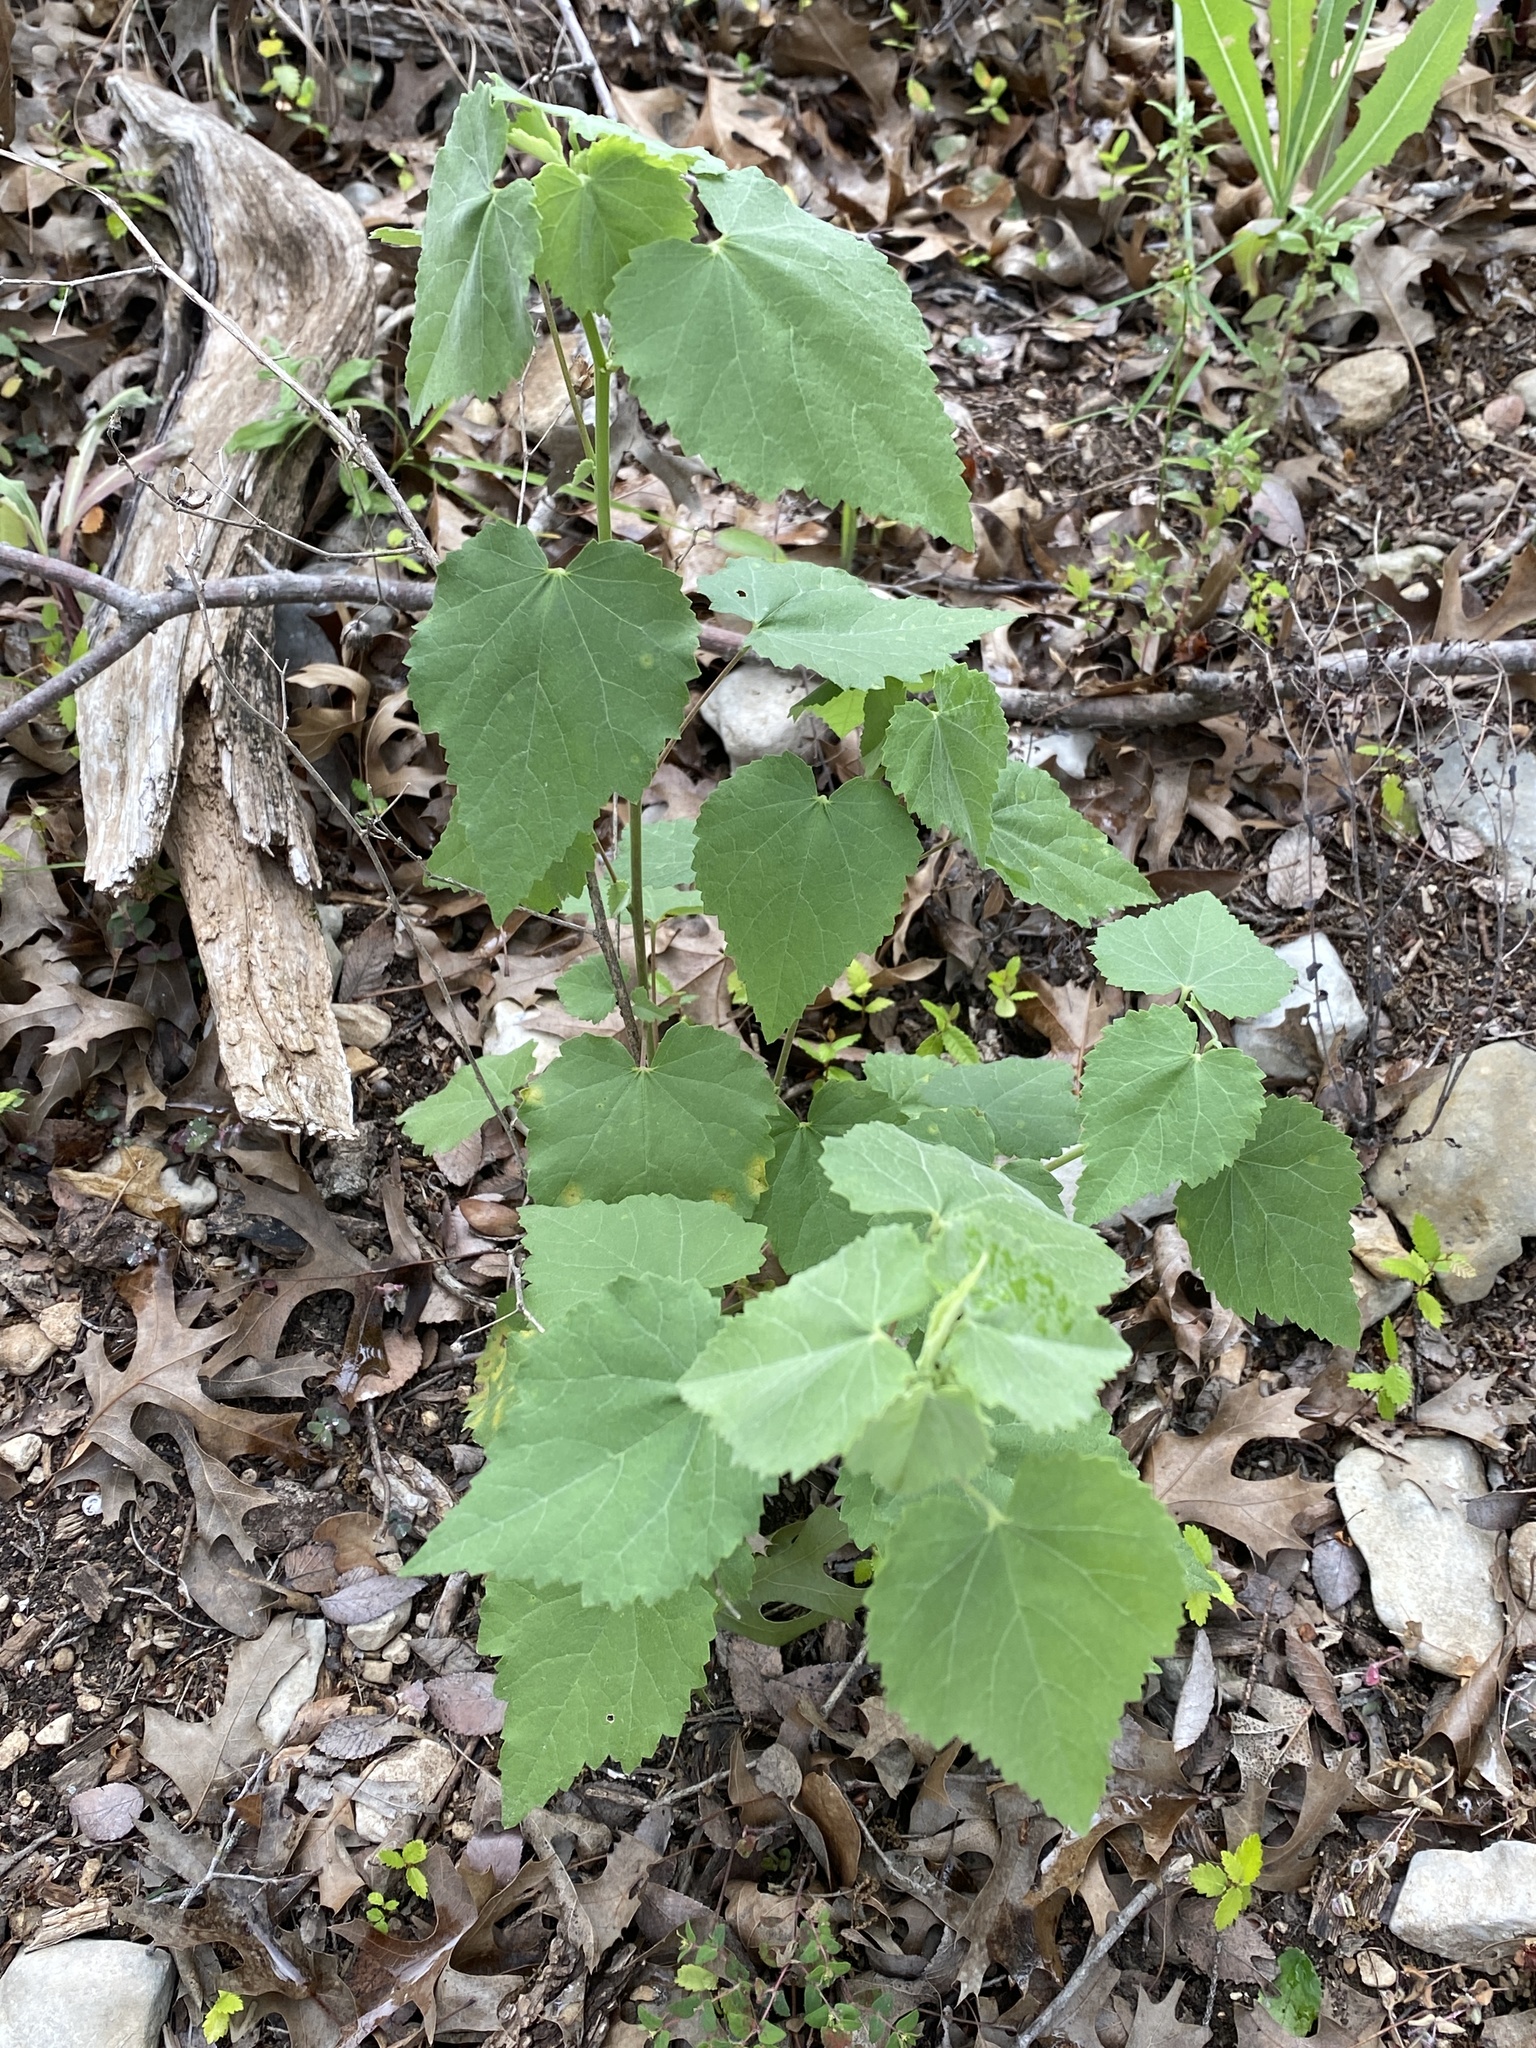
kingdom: Plantae
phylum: Tracheophyta
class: Magnoliopsida
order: Malvales
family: Malvaceae
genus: Abutilon
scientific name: Abutilon fruticosum
